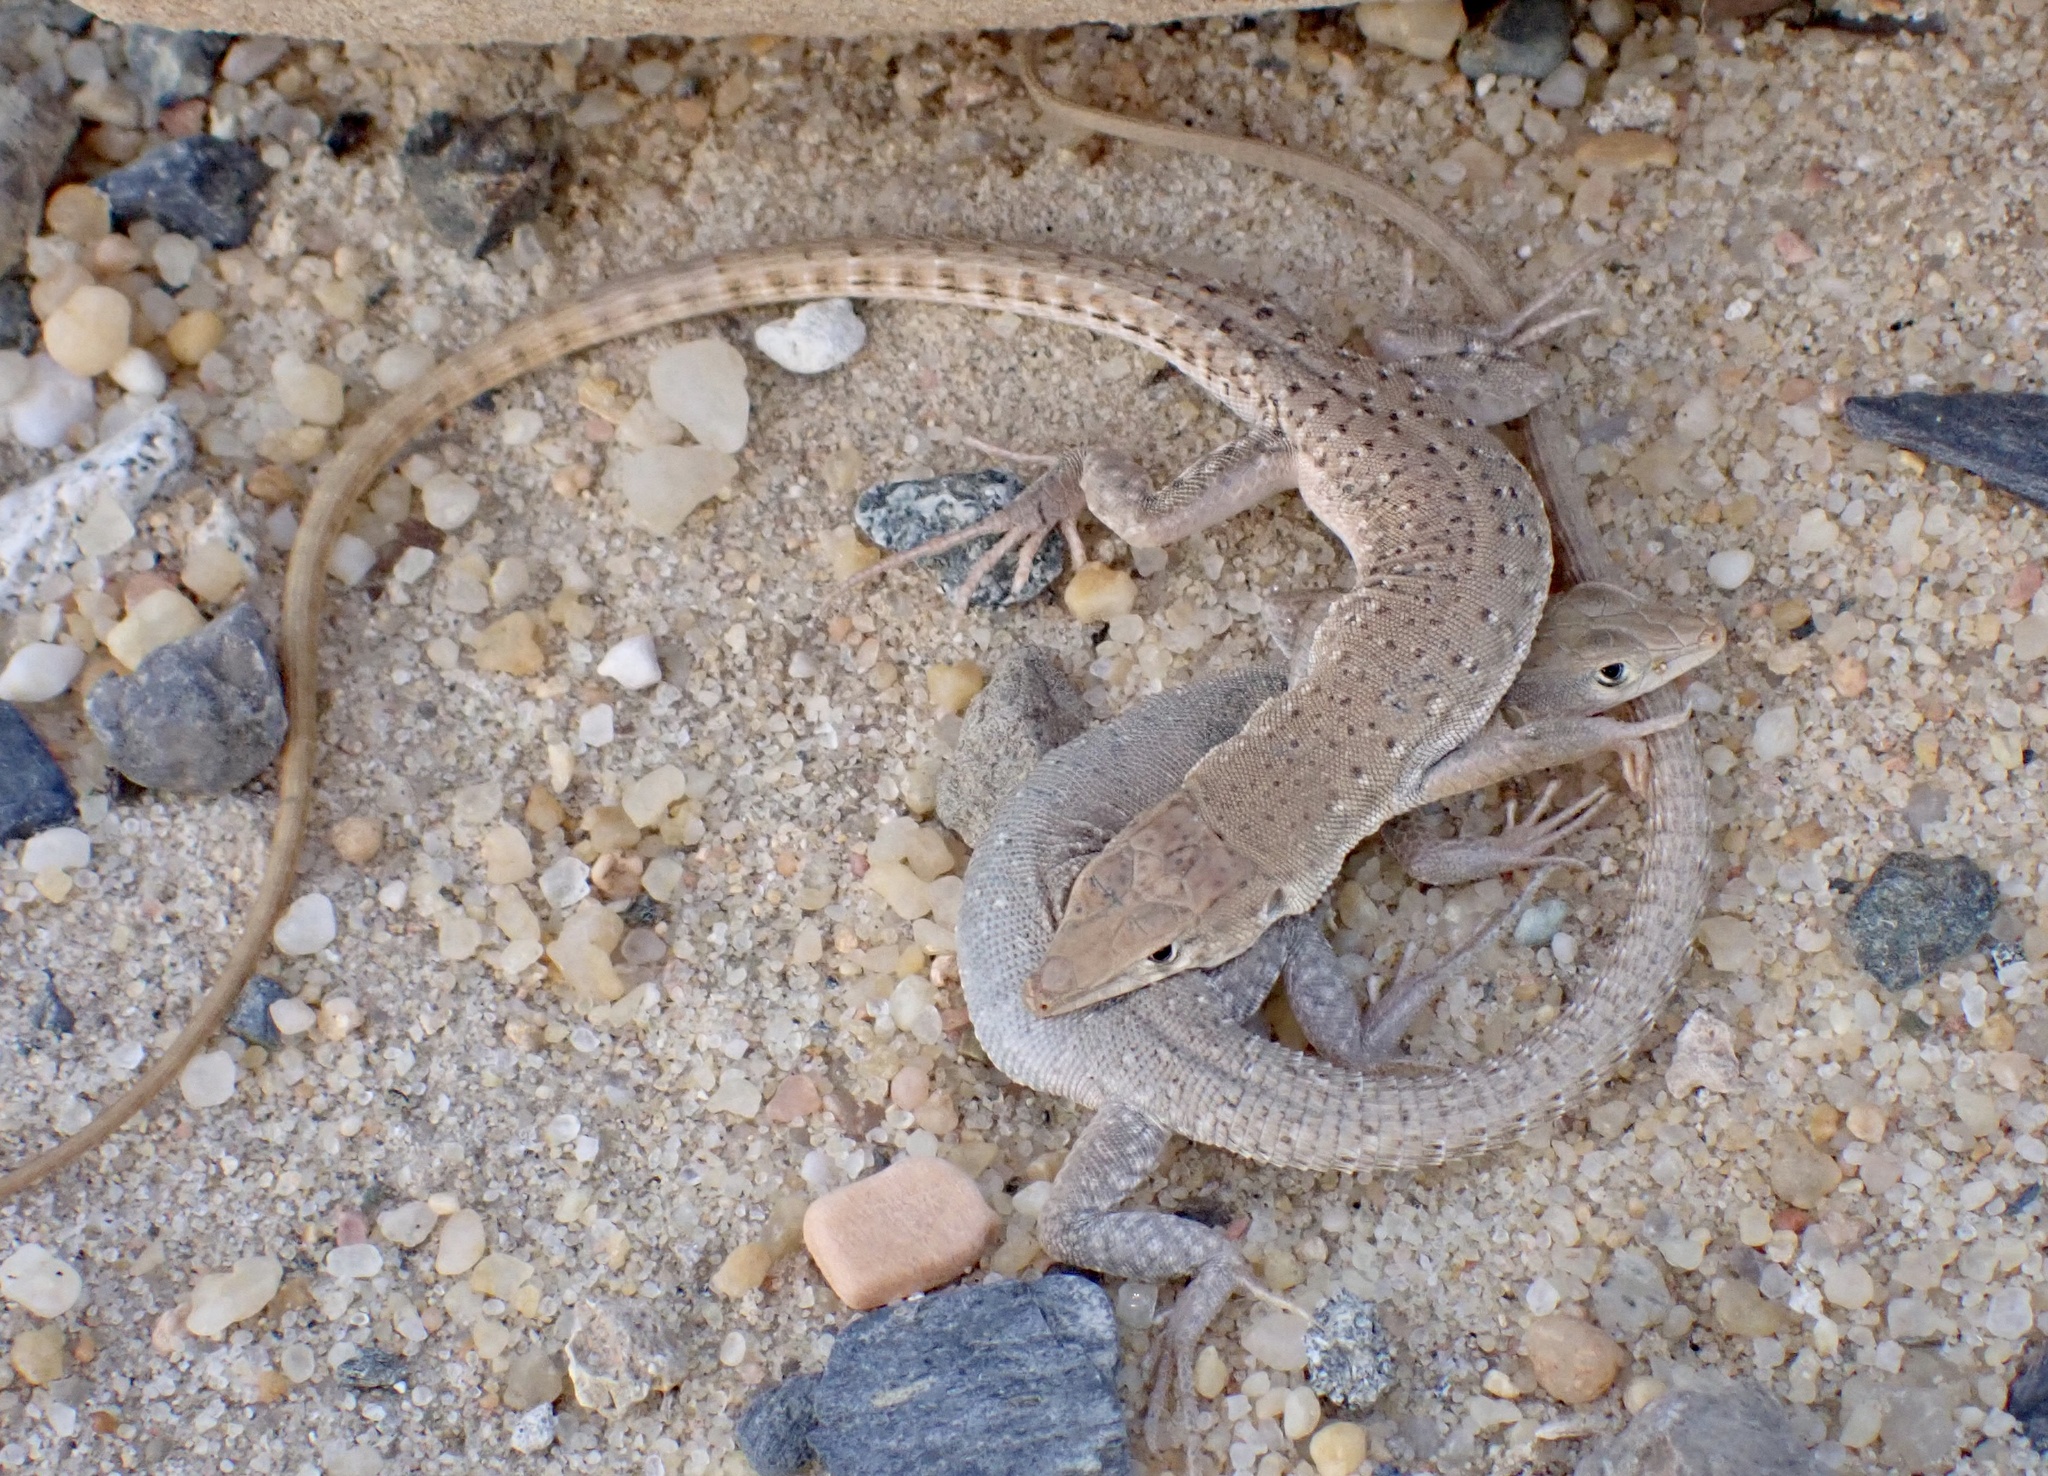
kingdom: Animalia
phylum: Chordata
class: Squamata
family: Lacertidae
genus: Mesalina
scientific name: Mesalina guttulata
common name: Desert lacerta
